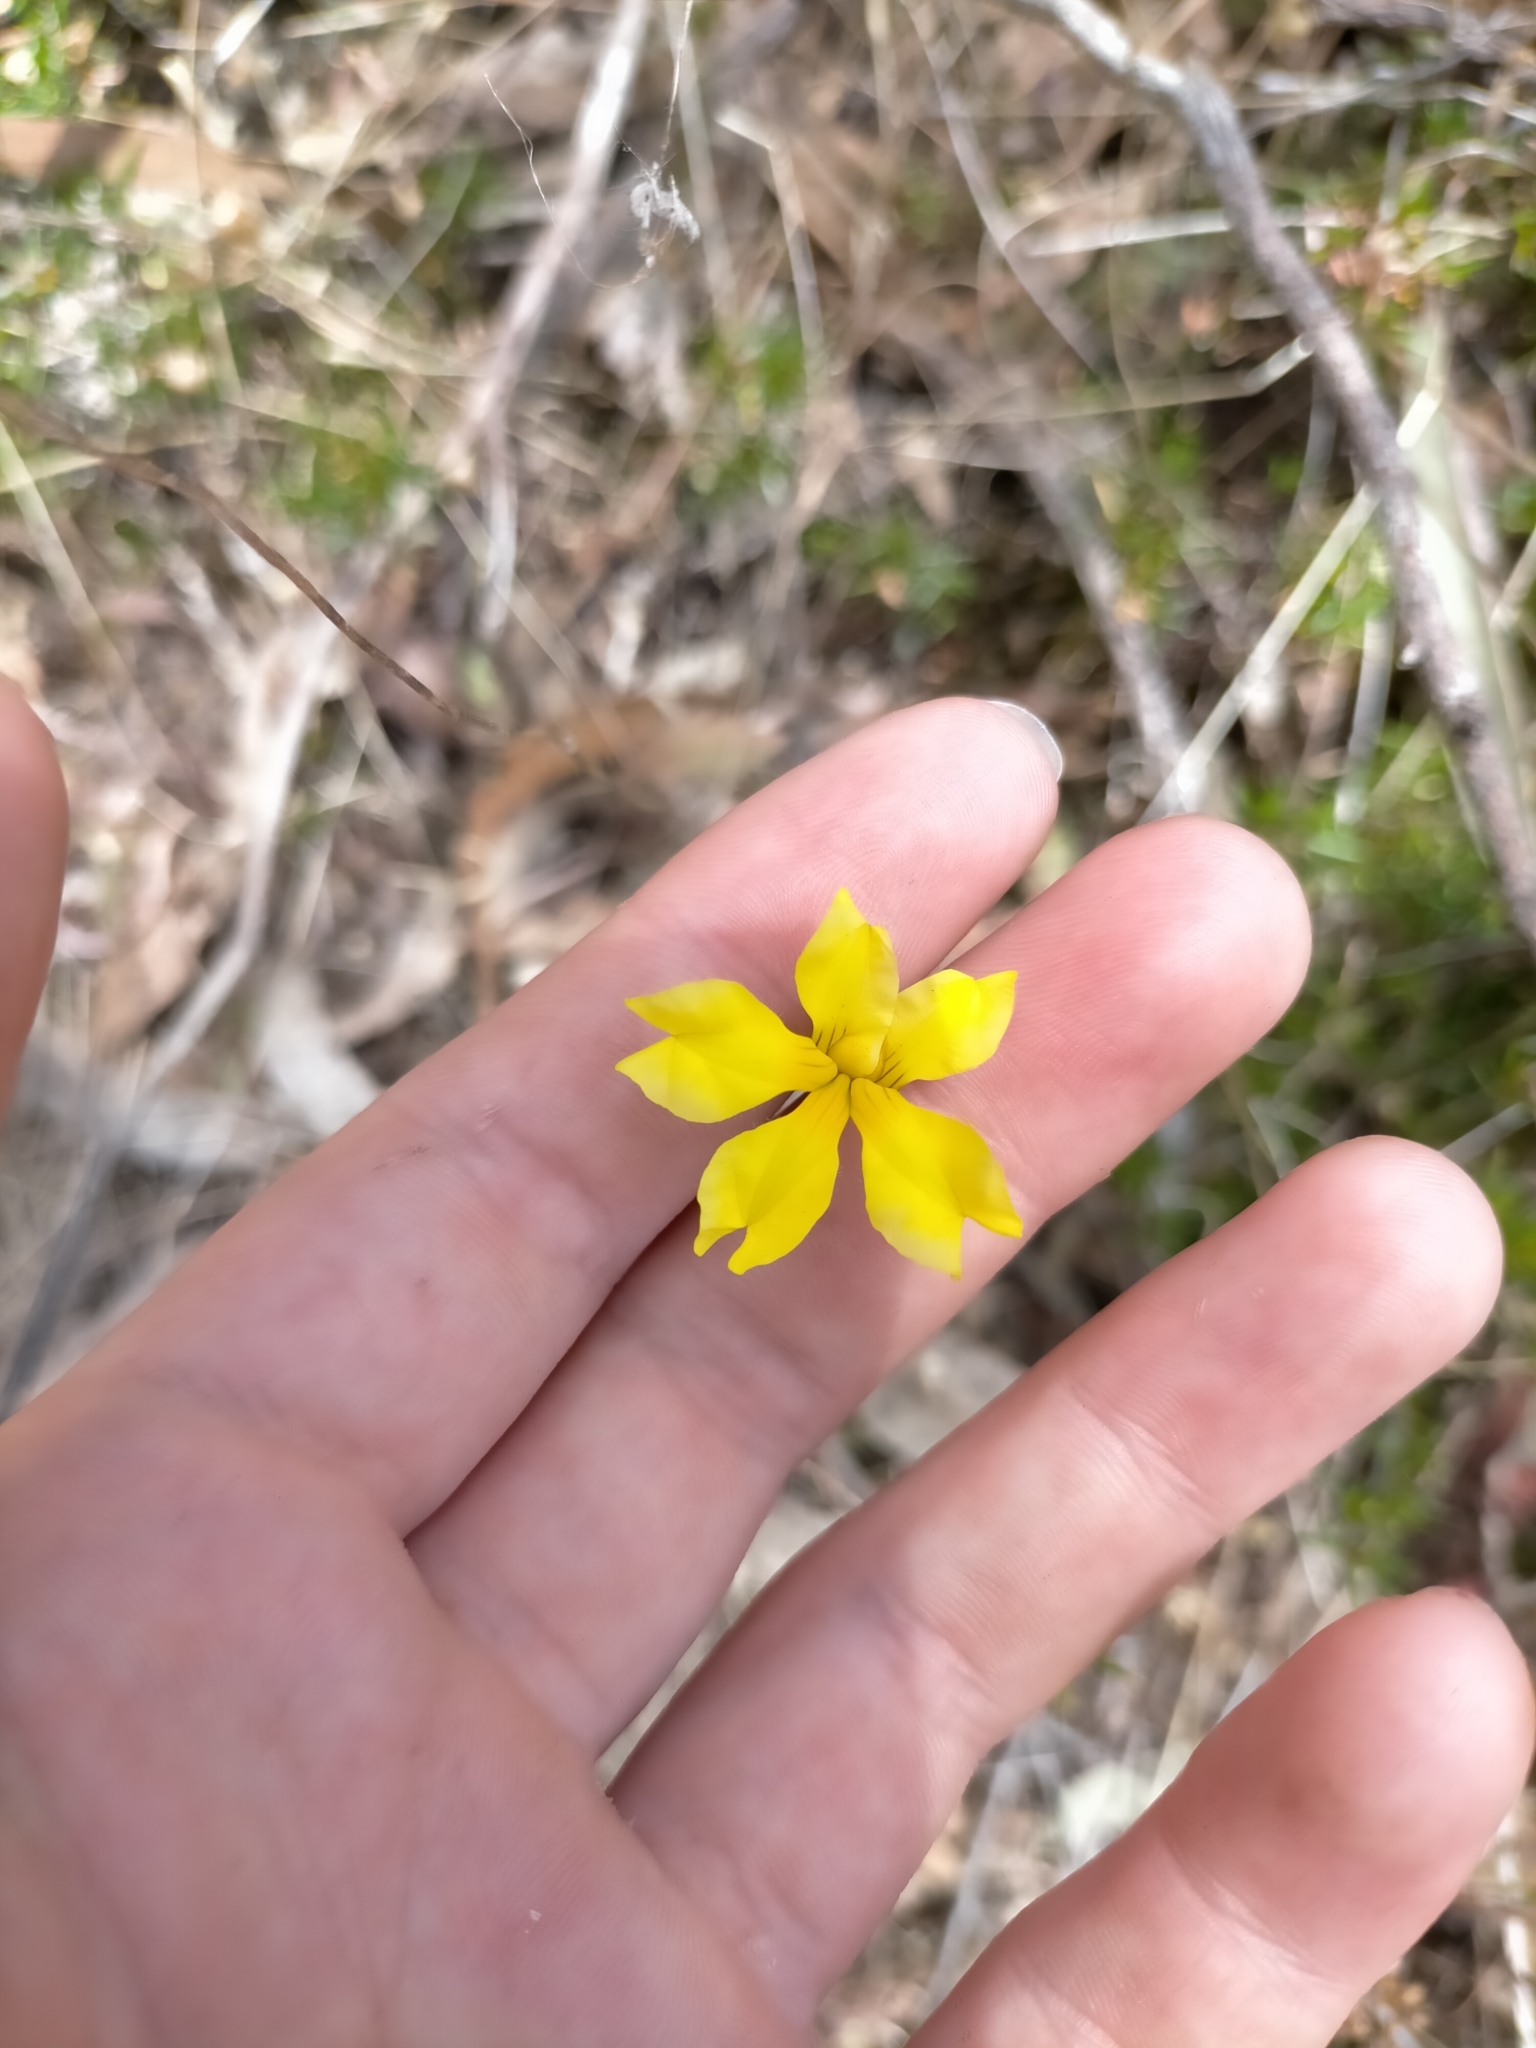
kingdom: Plantae
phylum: Tracheophyta
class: Magnoliopsida
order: Asterales
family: Goodeniaceae
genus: Goodenia
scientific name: Goodenia pinnatifida
